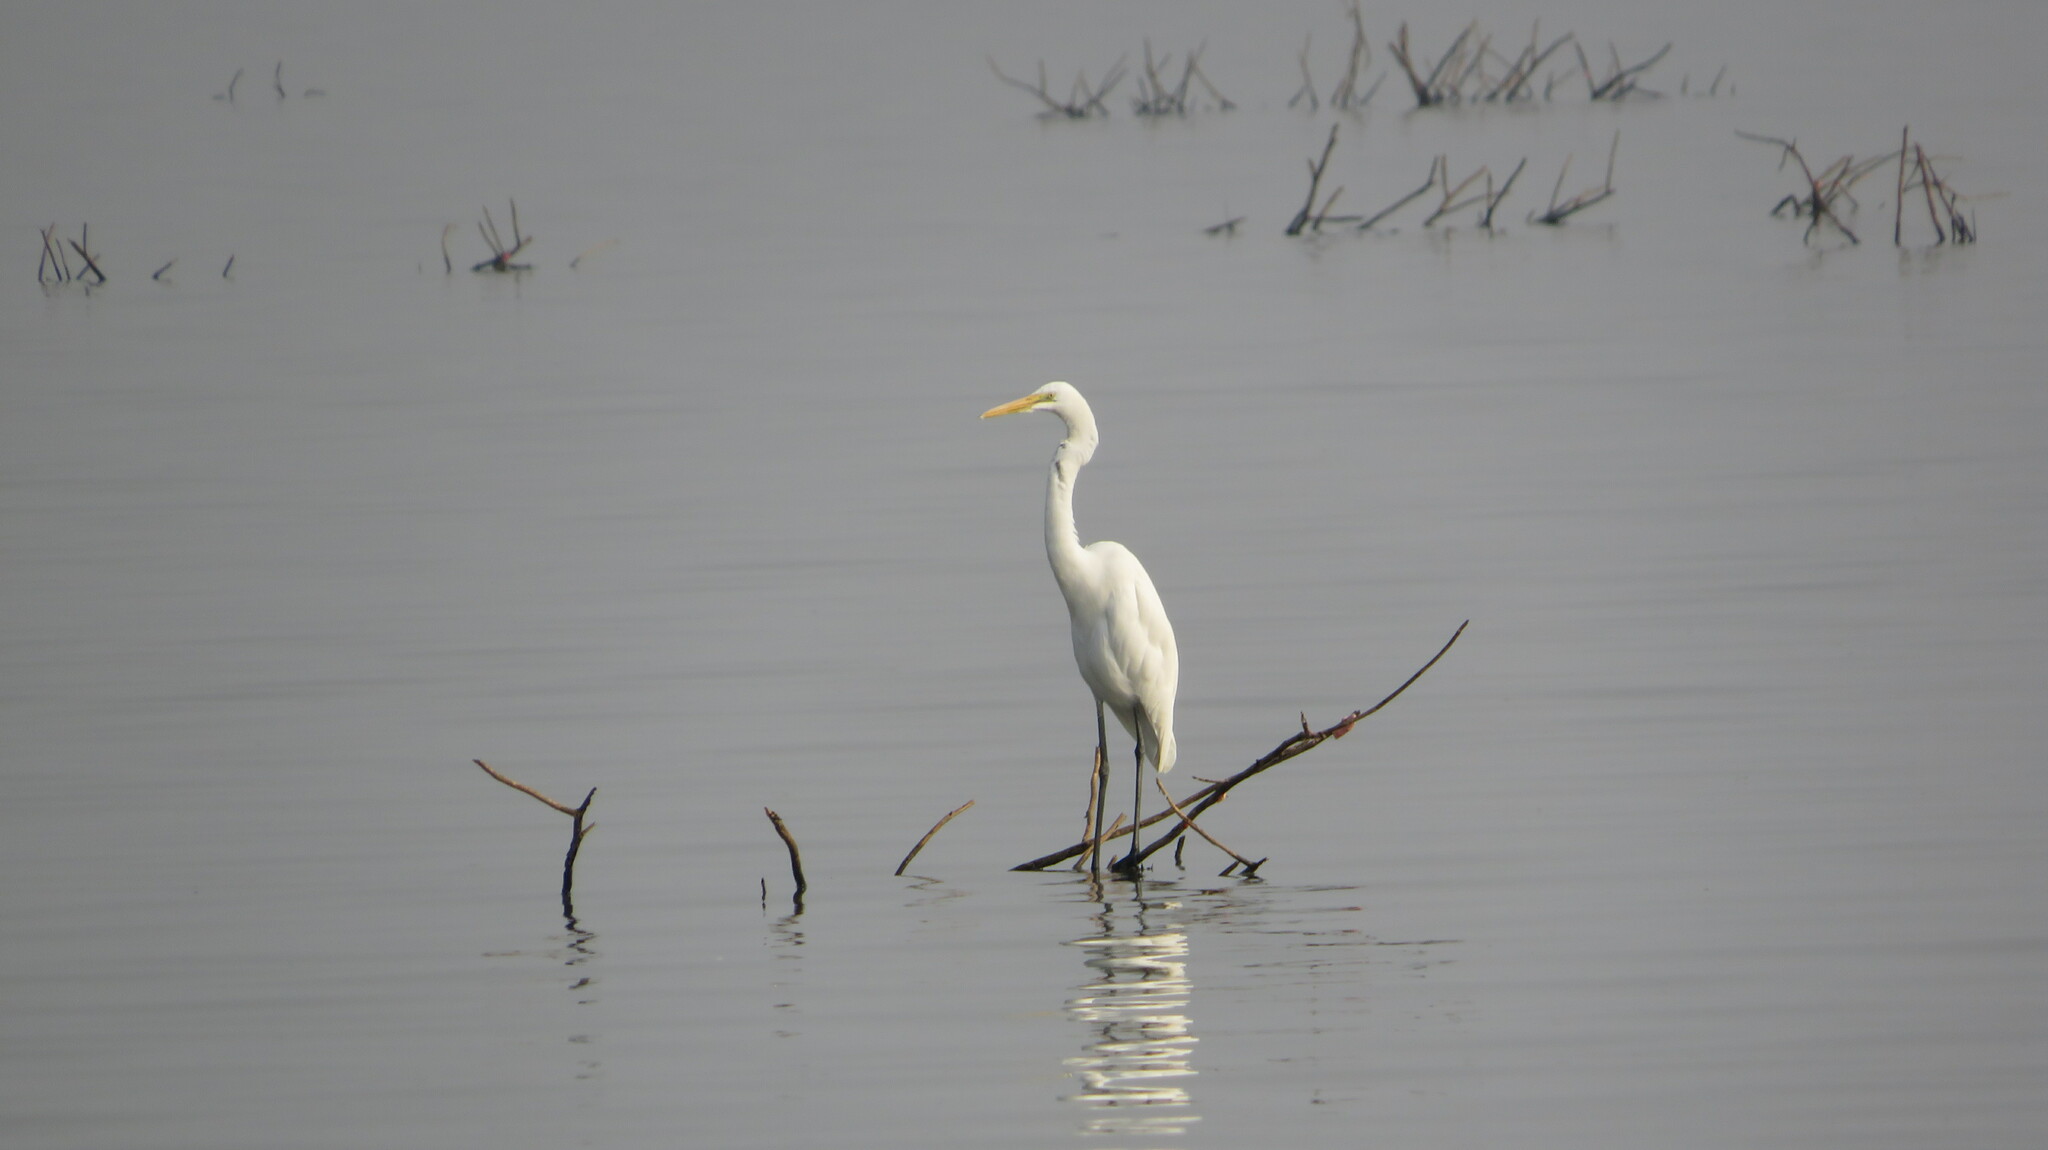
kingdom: Animalia
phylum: Chordata
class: Aves
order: Pelecaniformes
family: Ardeidae
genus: Ardea
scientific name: Ardea alba
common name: Great egret
